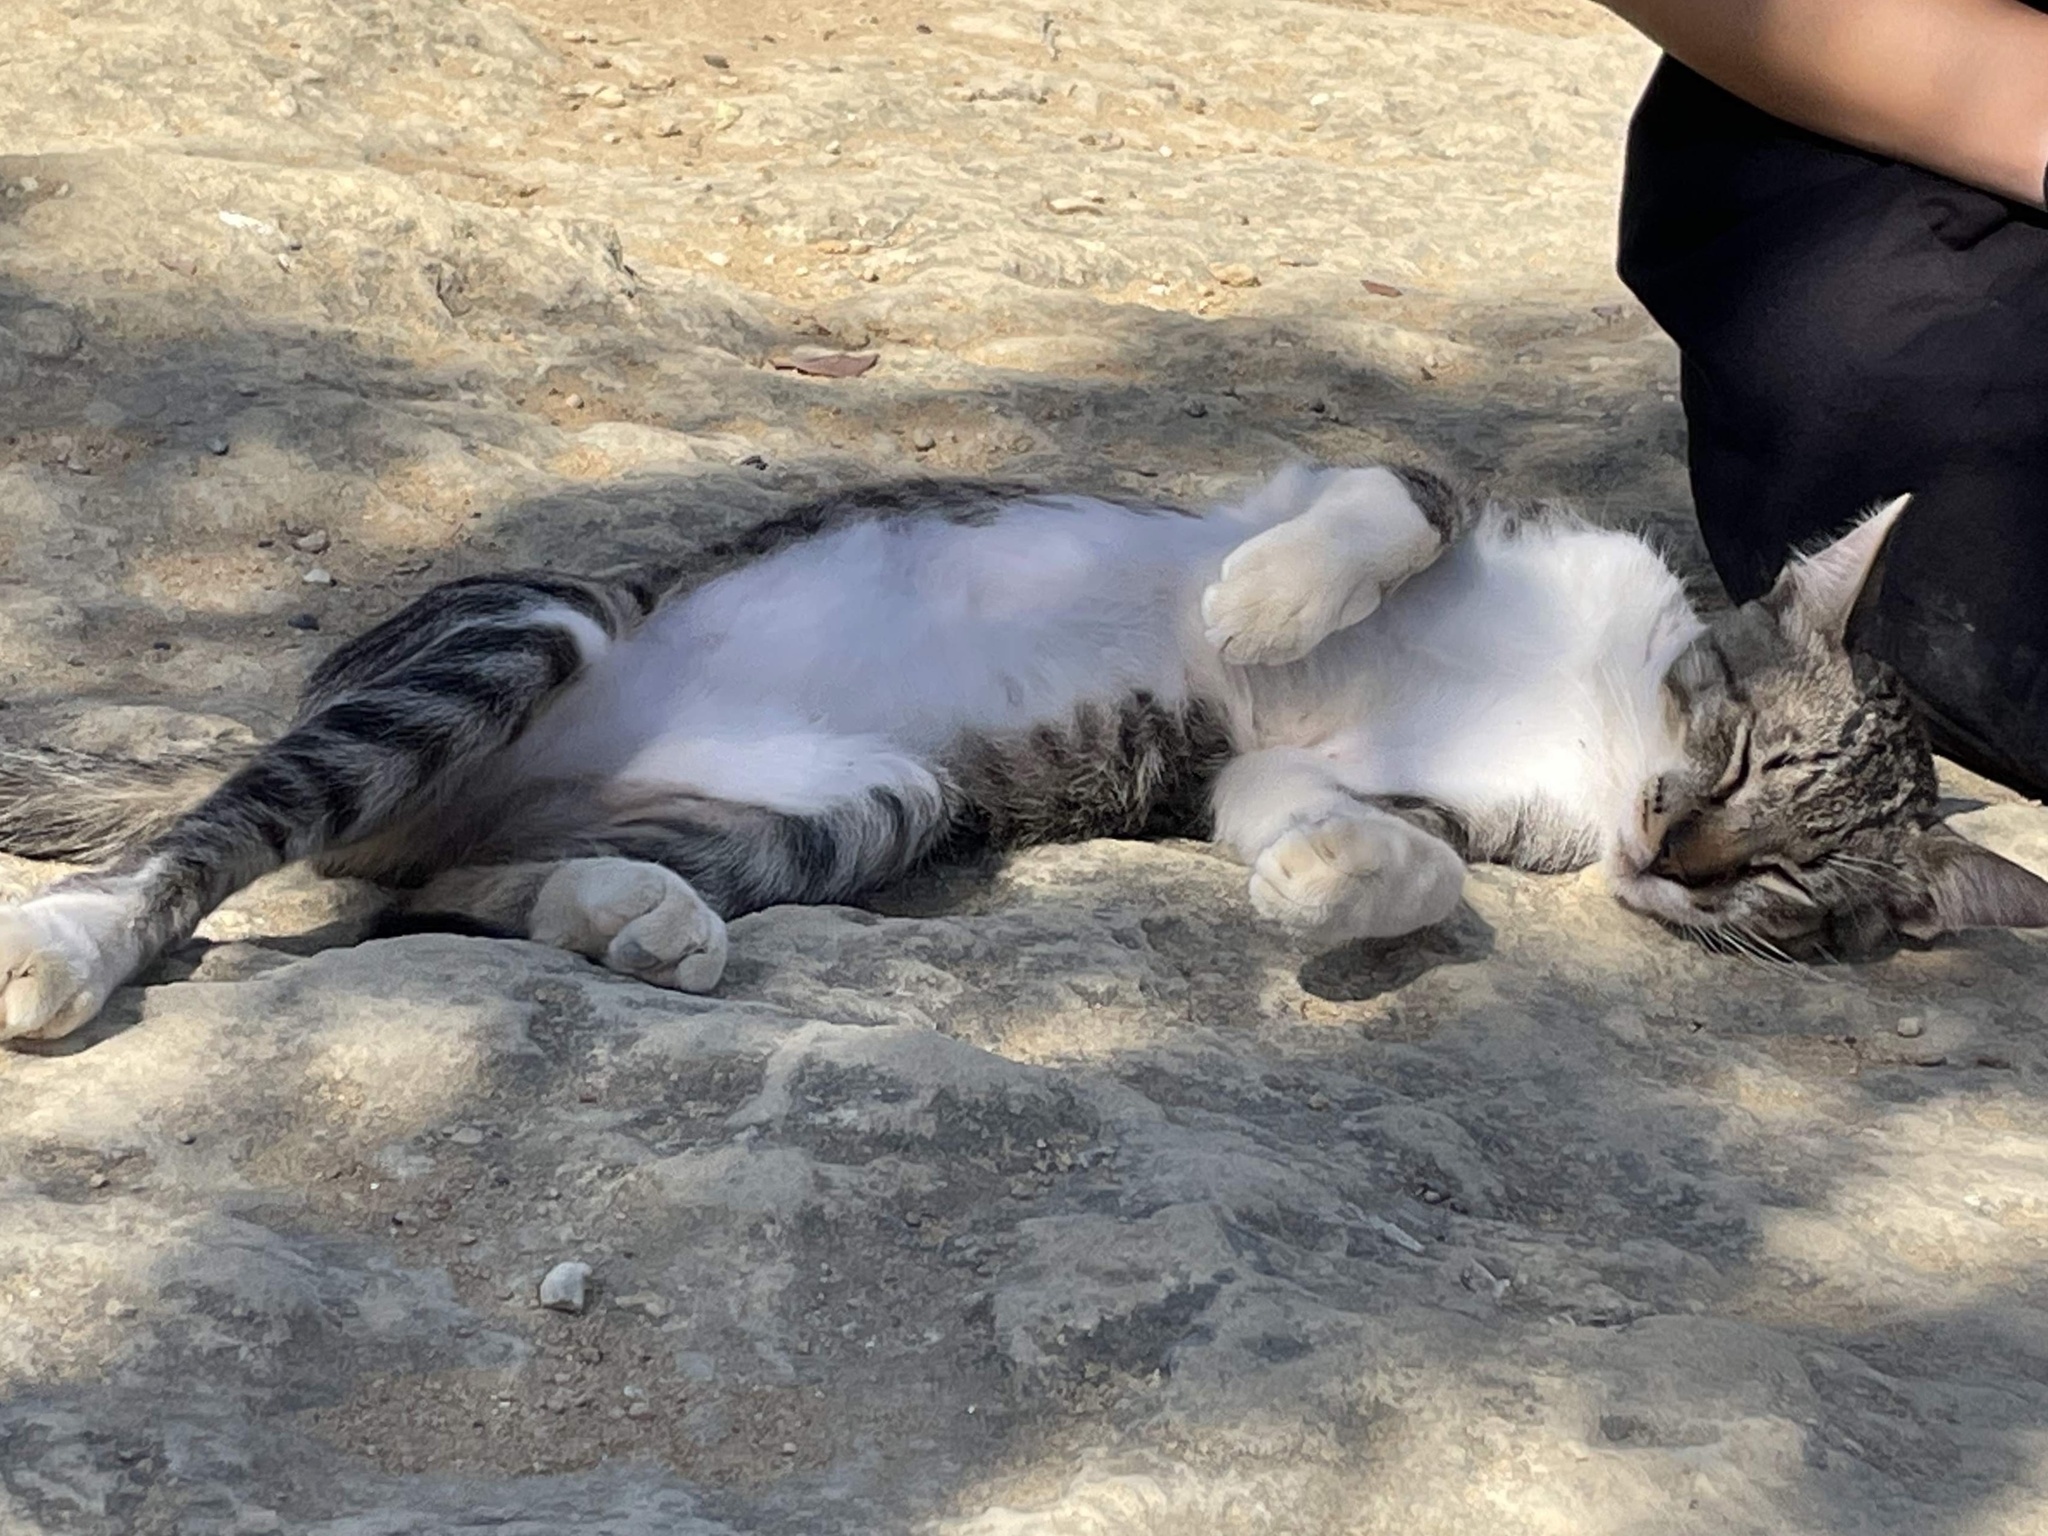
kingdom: Animalia
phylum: Chordata
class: Mammalia
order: Carnivora
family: Felidae
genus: Felis
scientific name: Felis catus
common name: Domestic cat
